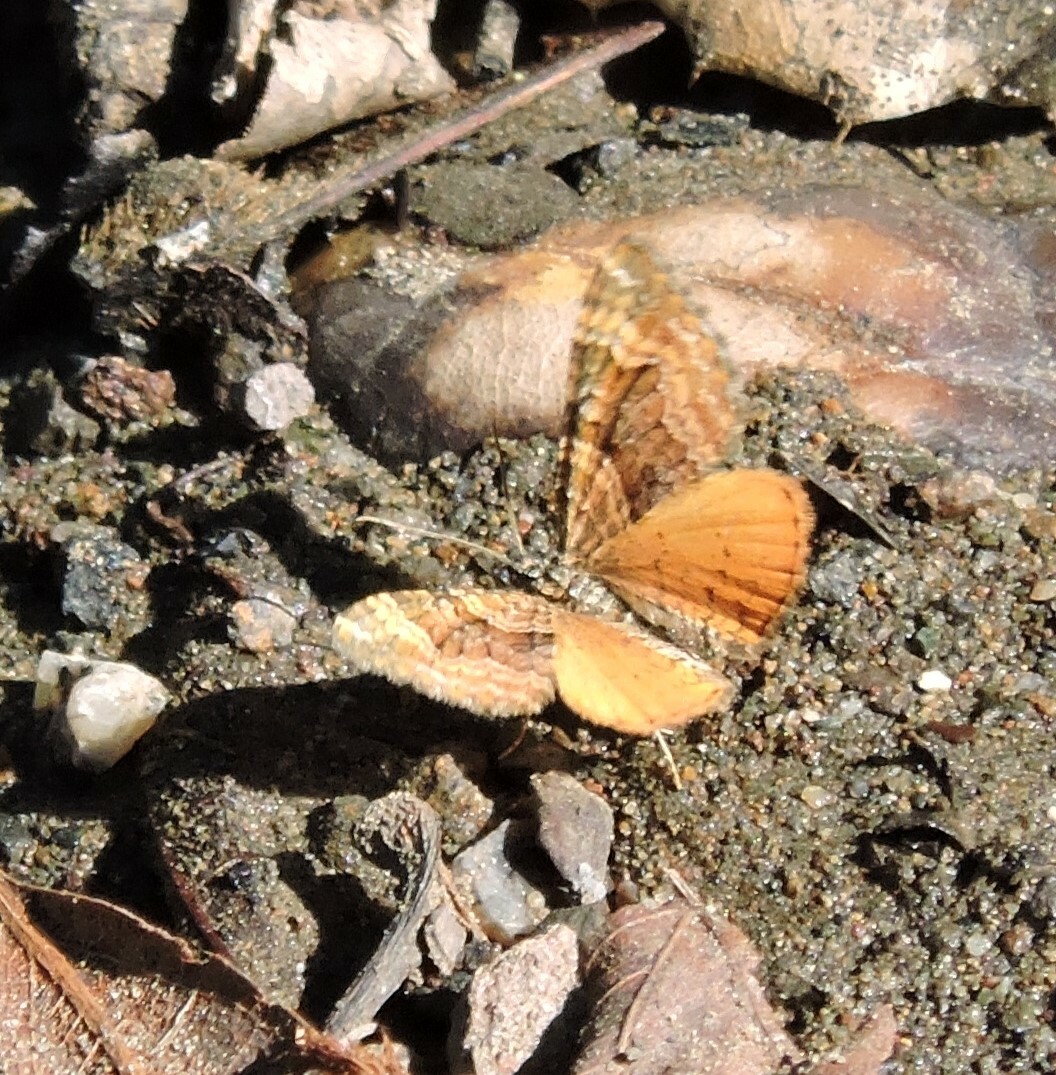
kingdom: Animalia
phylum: Arthropoda
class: Insecta
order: Lepidoptera
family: Geometridae
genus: Epirrhoe
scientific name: Epirrhoe plebeculata
